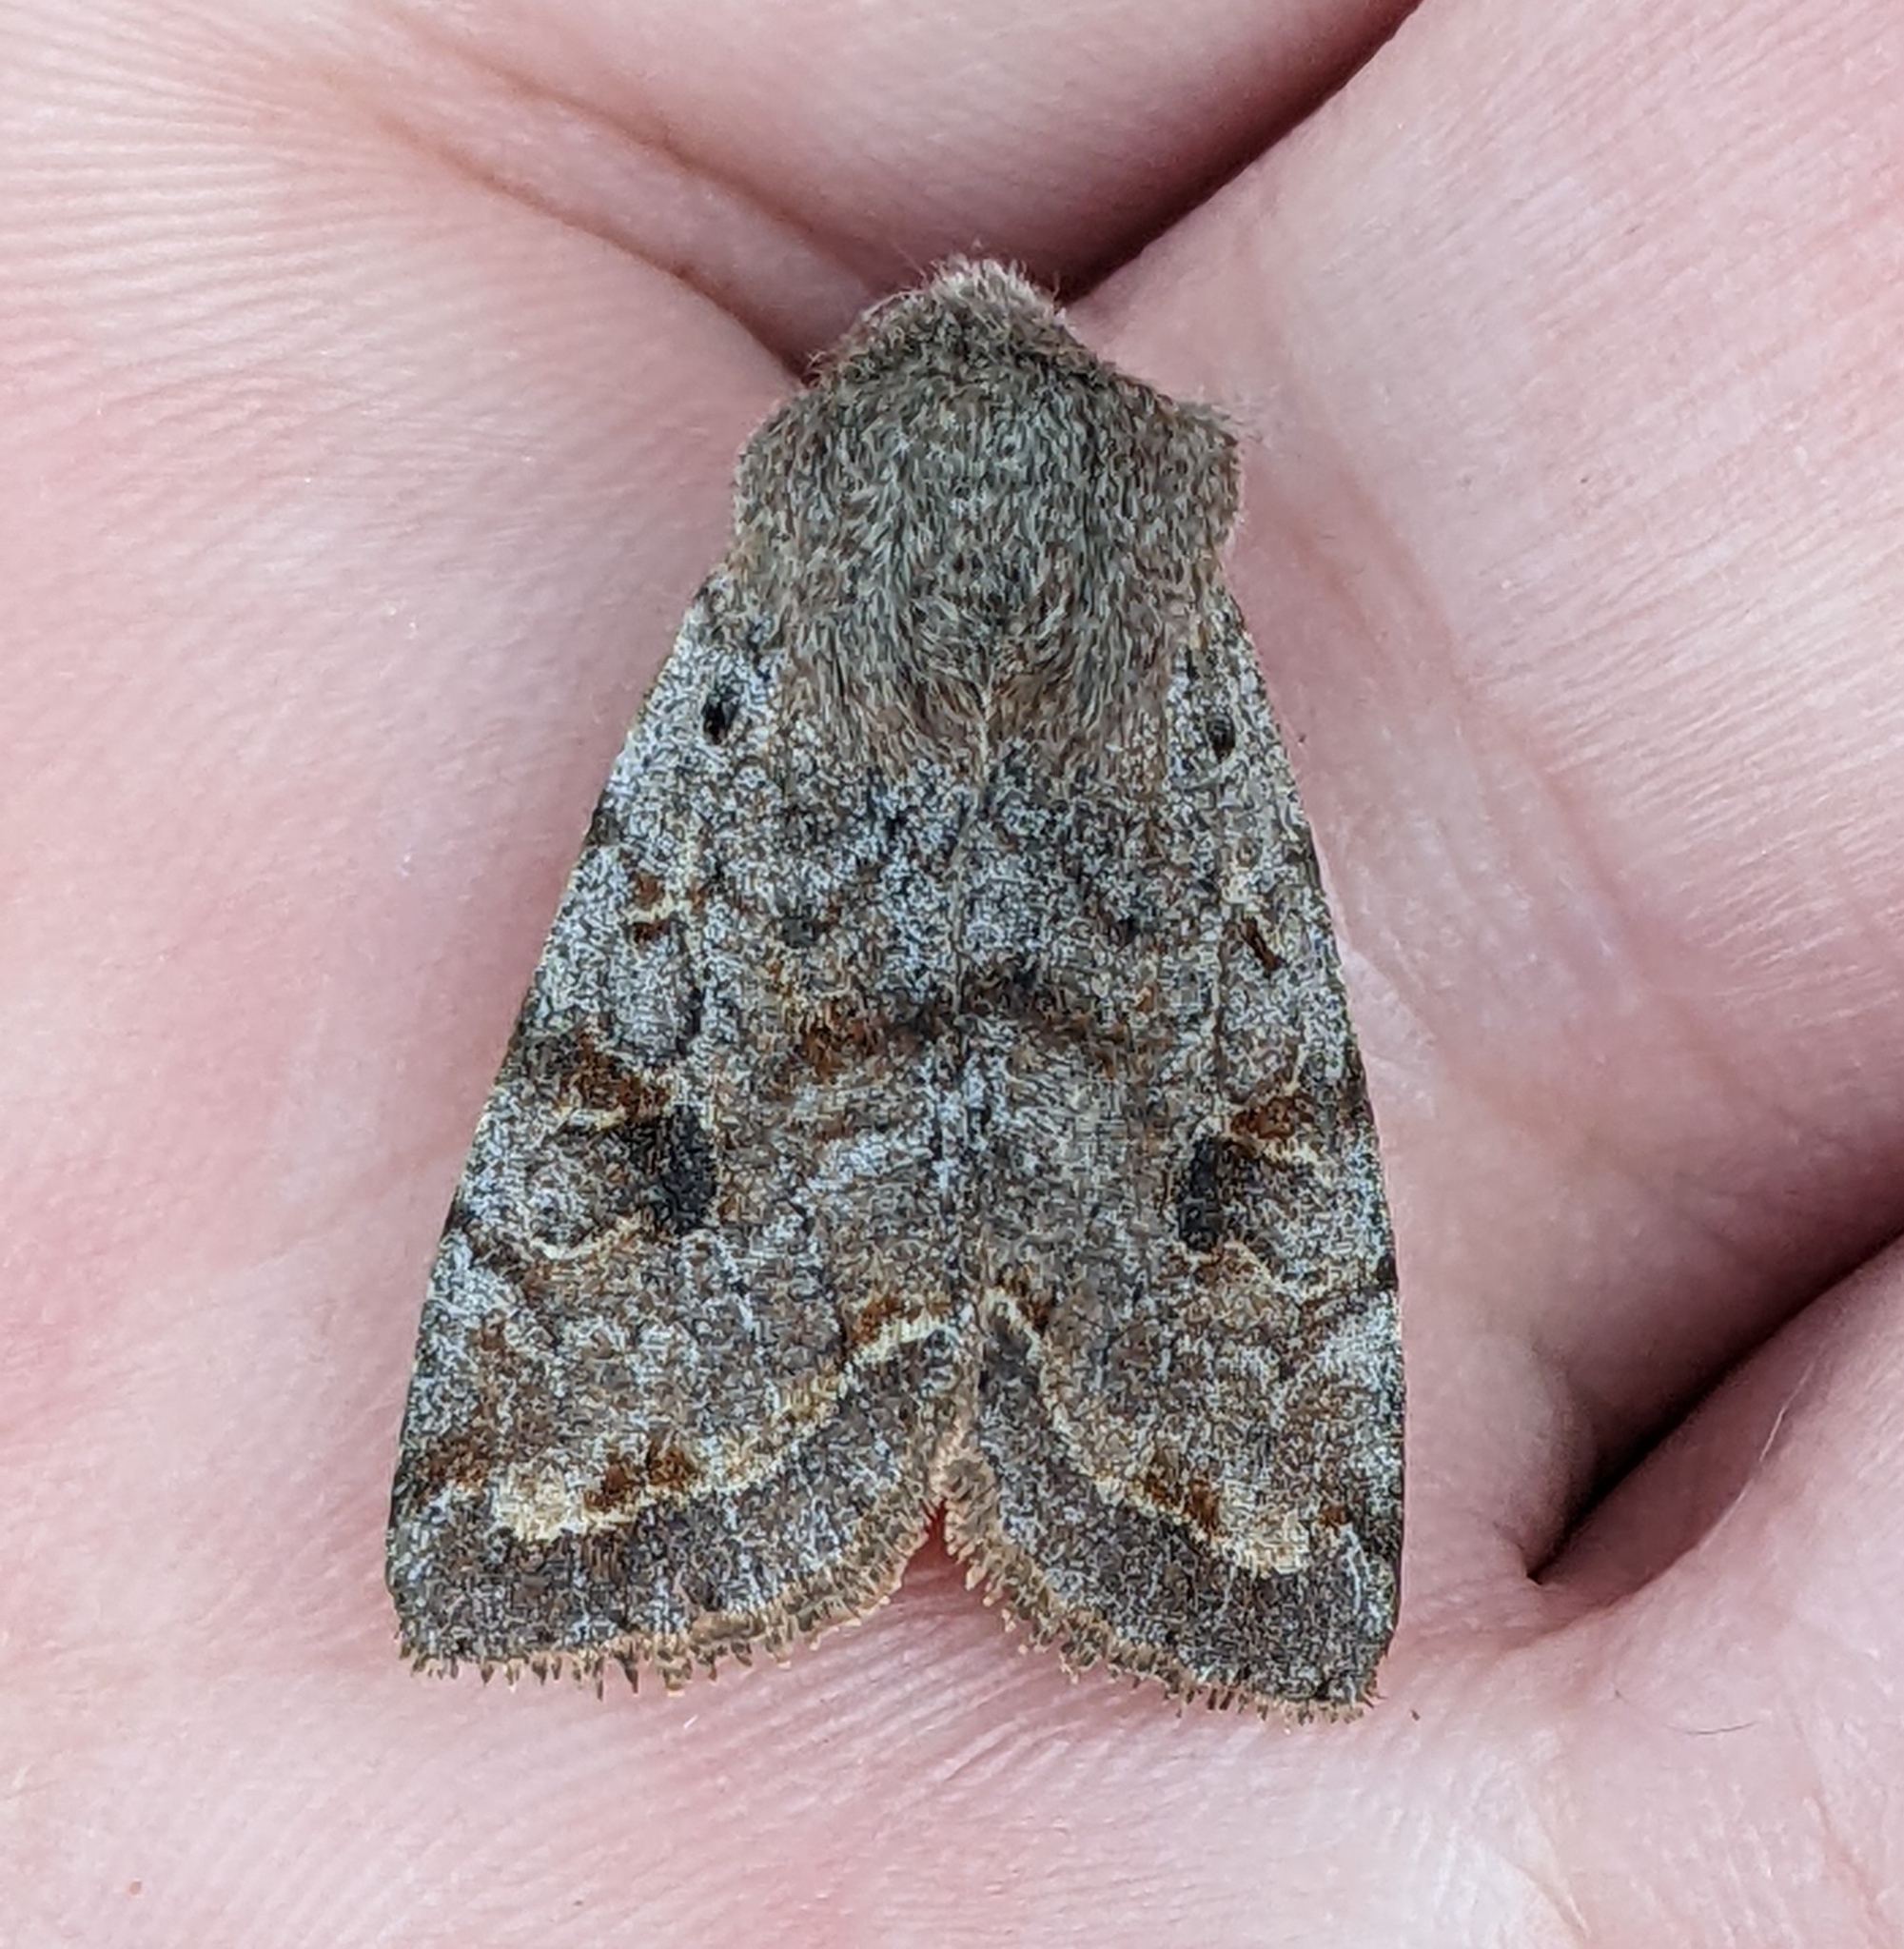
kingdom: Animalia
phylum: Arthropoda
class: Insecta
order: Lepidoptera
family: Noctuidae
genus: Orthosia
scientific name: Orthosia hibisci
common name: Green fruitworm
